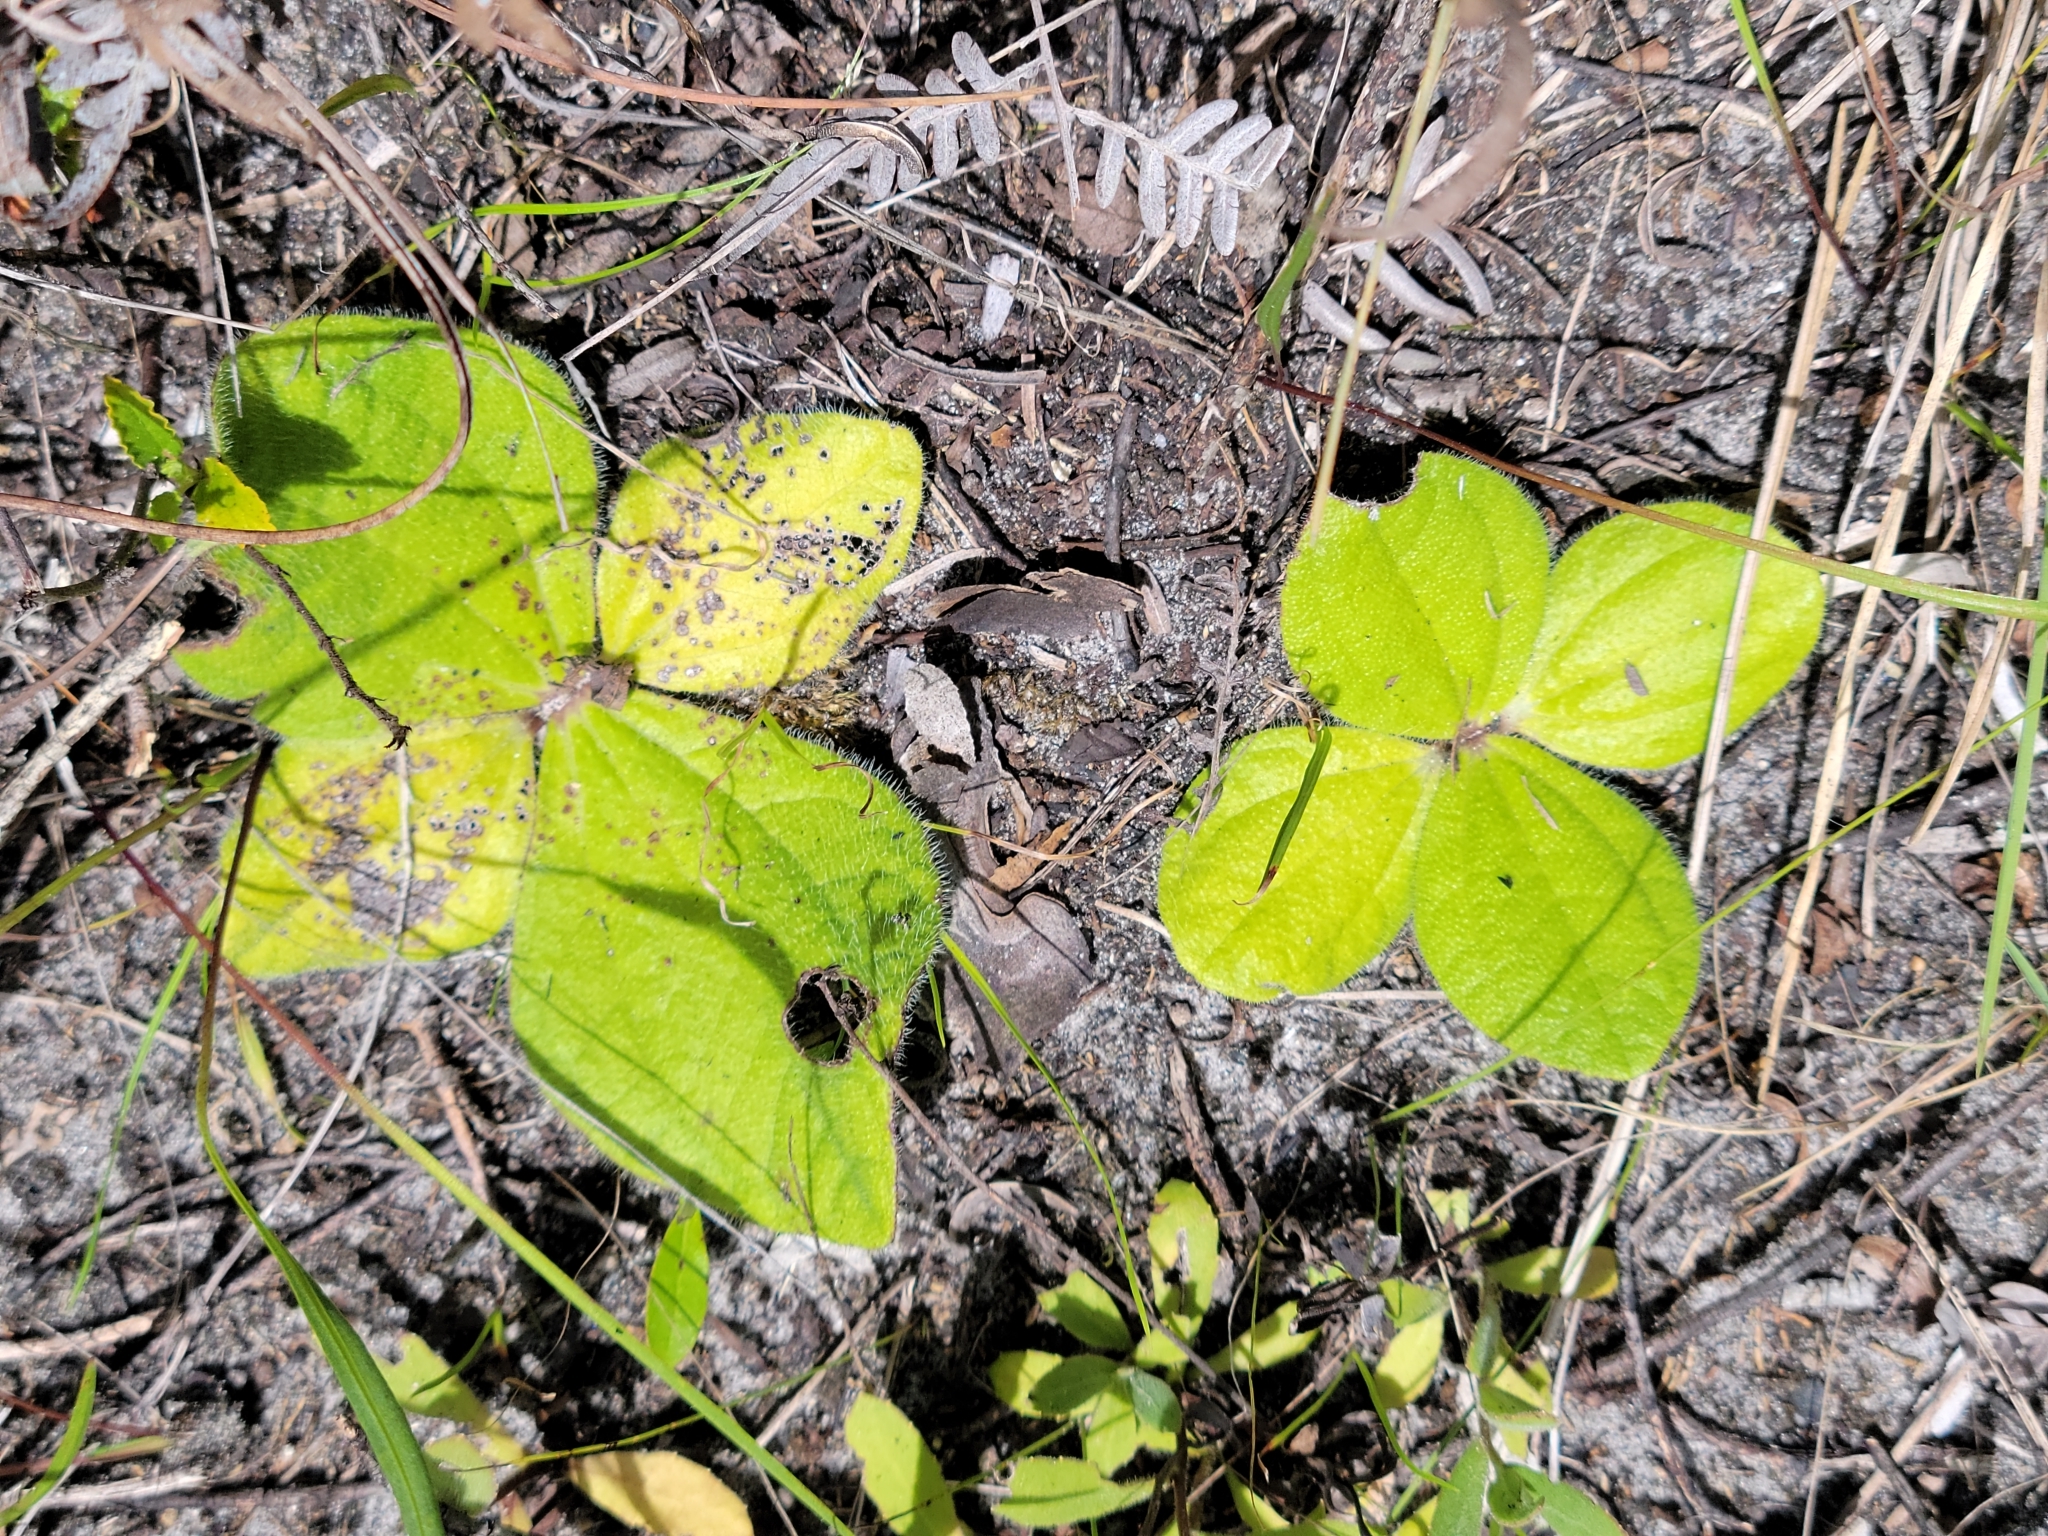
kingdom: Plantae
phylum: Tracheophyta
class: Magnoliopsida
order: Asterales
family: Asteraceae
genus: Helianthus
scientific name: Helianthus radula
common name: Pineland sunflower
